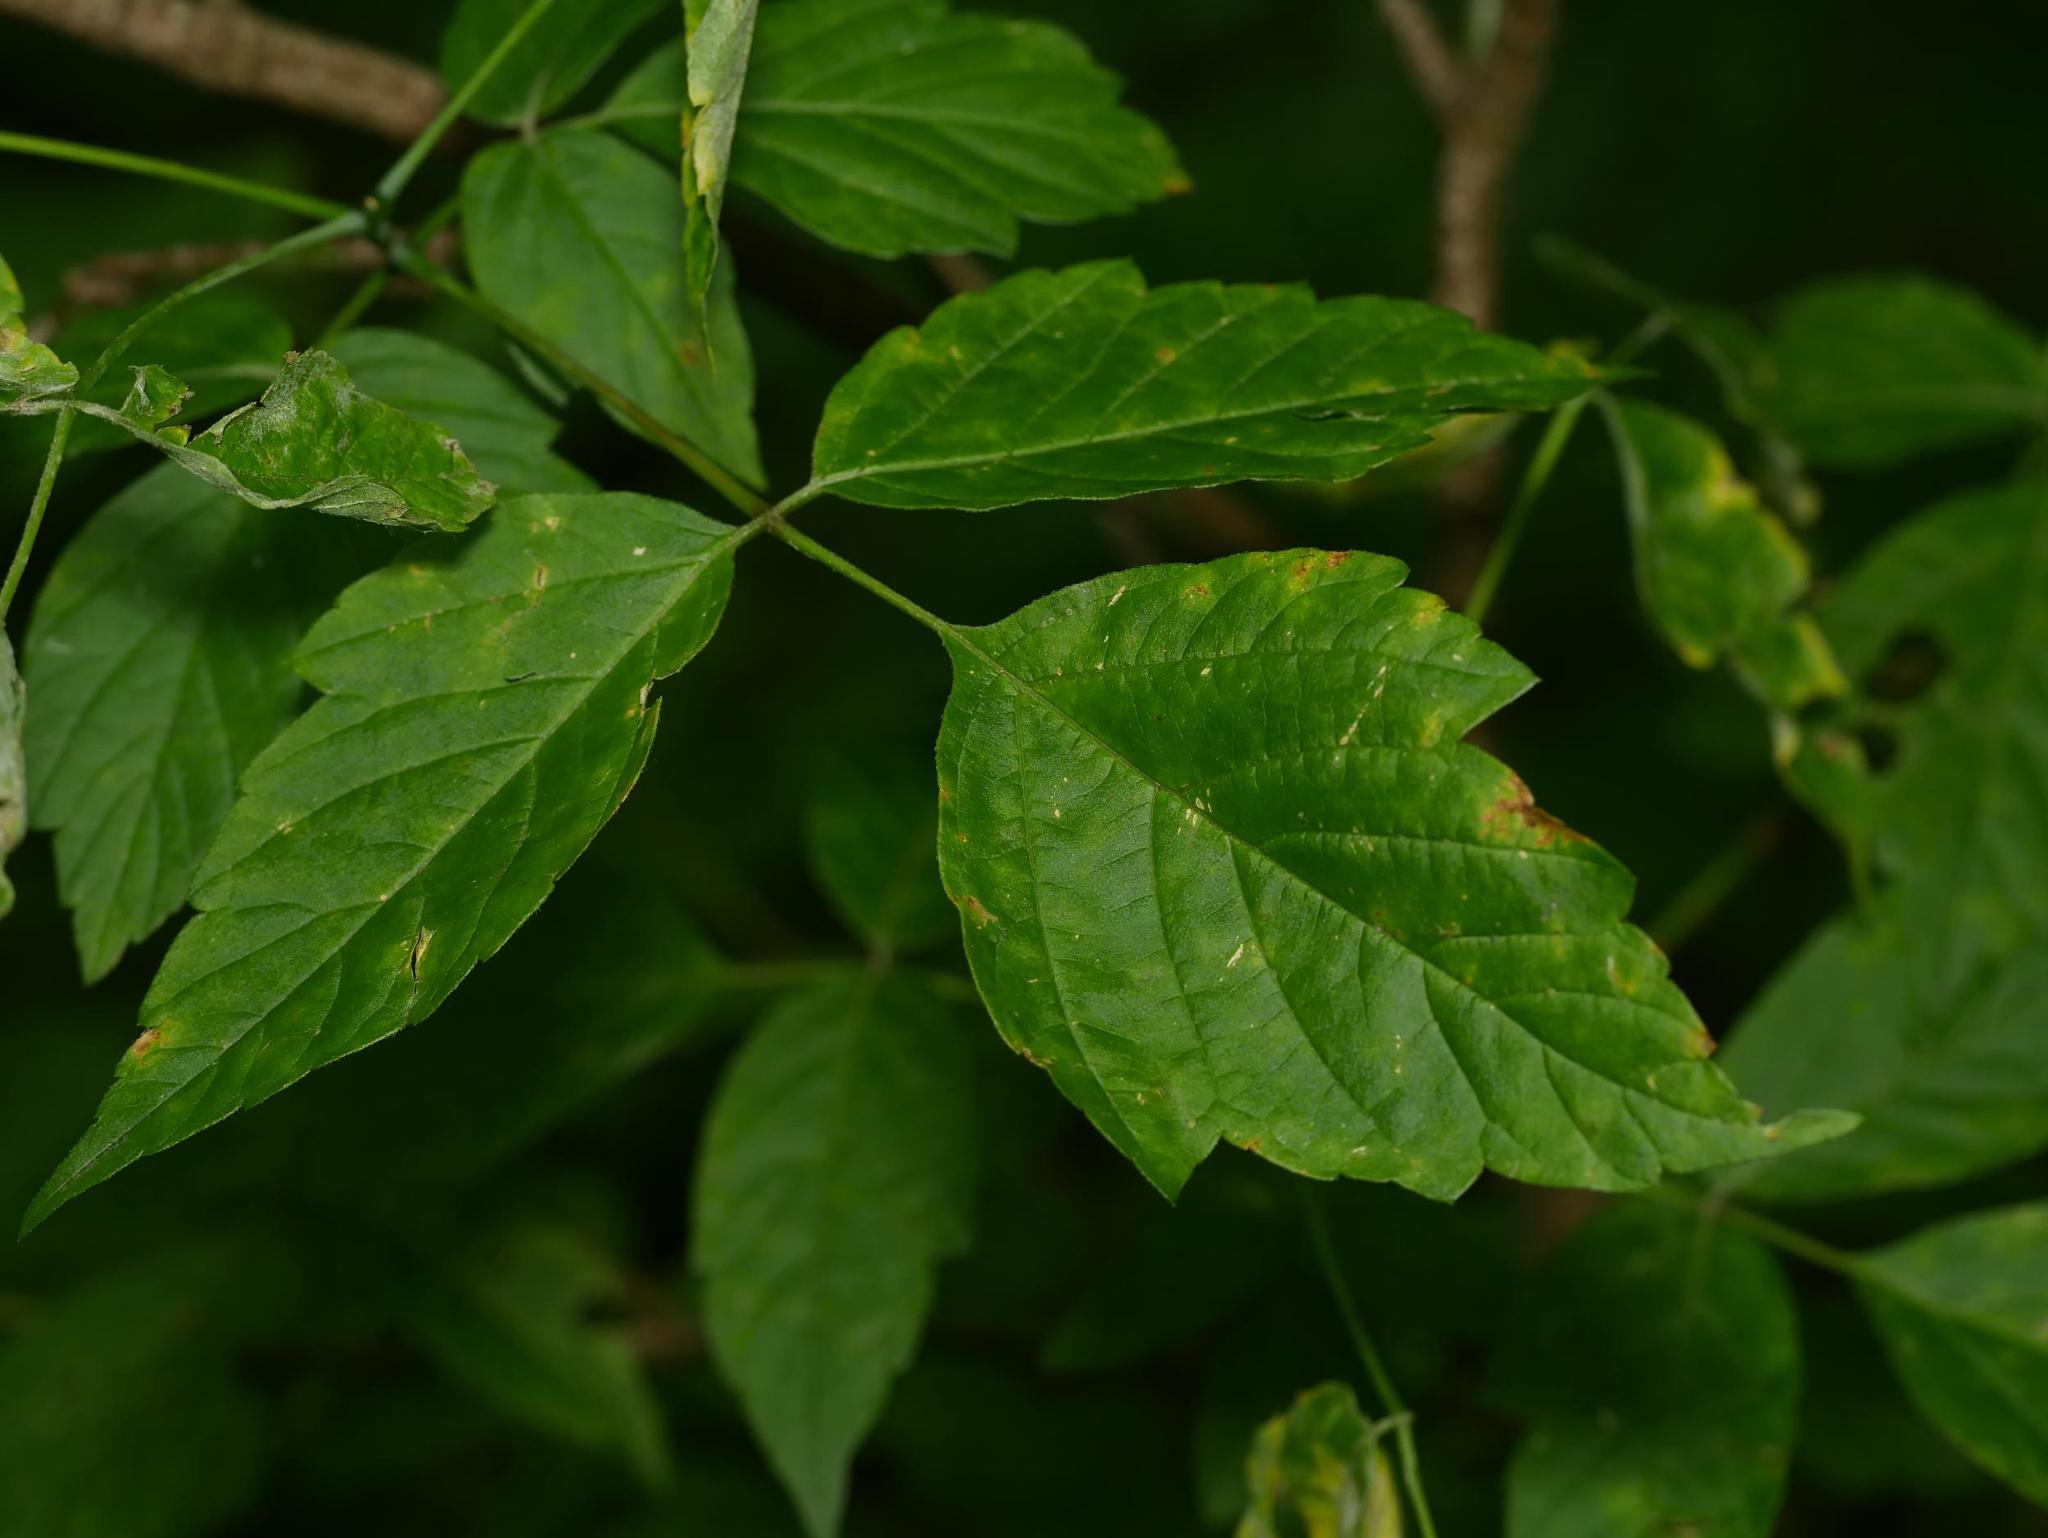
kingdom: Plantae
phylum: Tracheophyta
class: Magnoliopsida
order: Sapindales
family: Sapindaceae
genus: Acer
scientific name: Acer negundo
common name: Ashleaf maple
